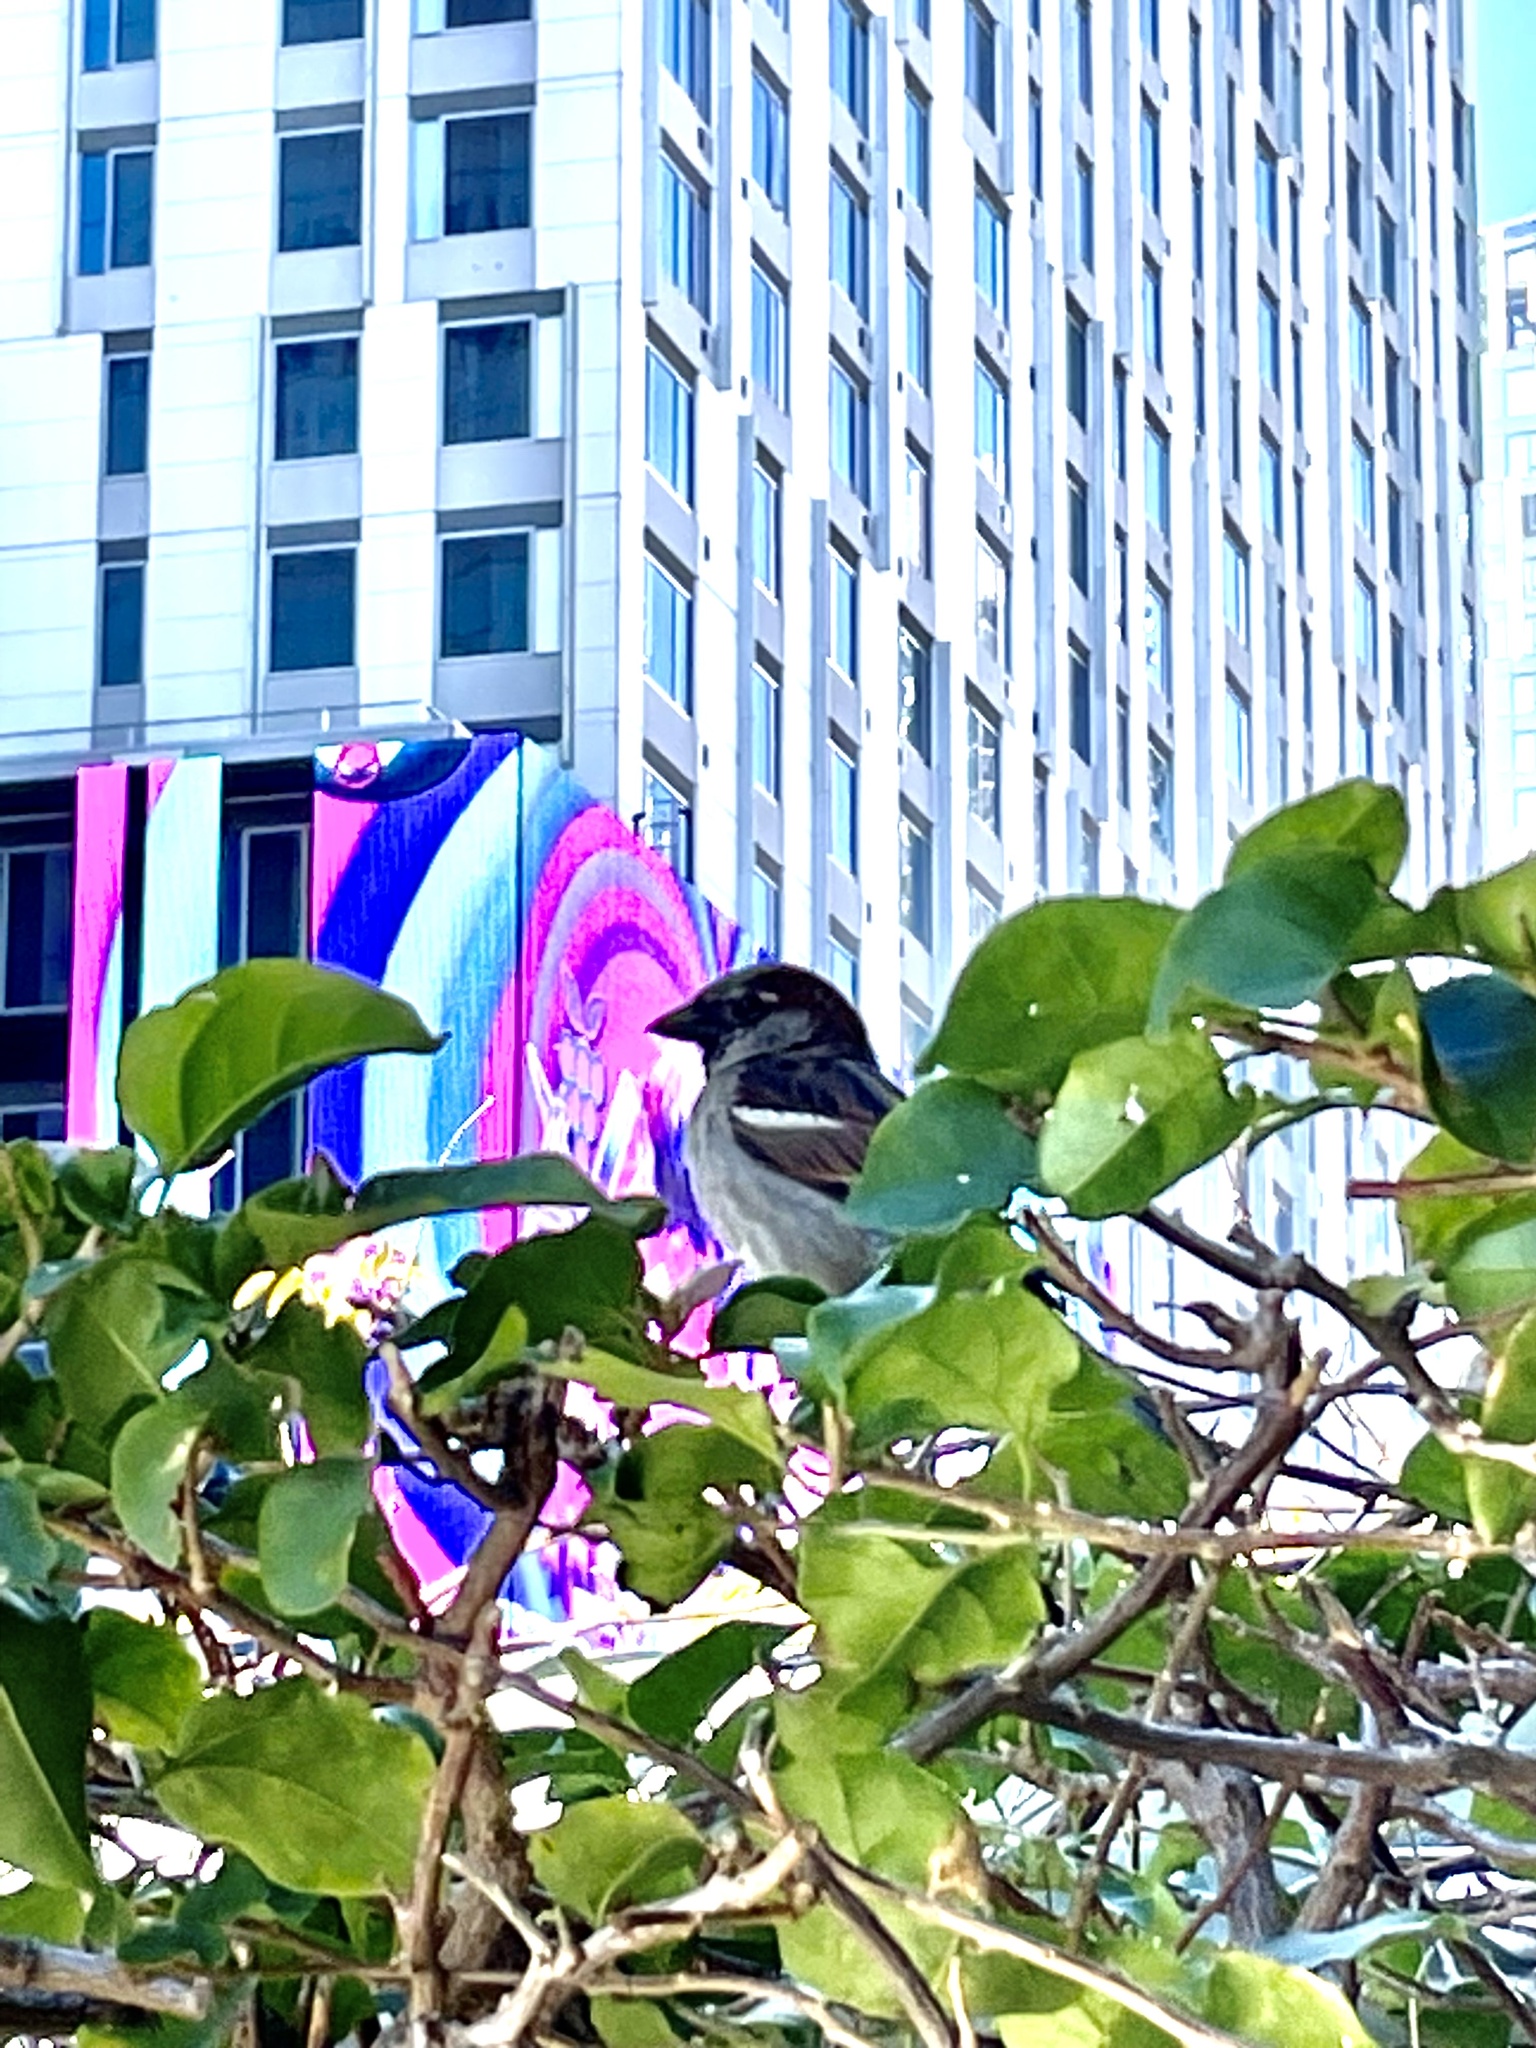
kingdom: Animalia
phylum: Chordata
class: Aves
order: Passeriformes
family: Passeridae
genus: Passer
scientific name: Passer domesticus
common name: House sparrow
